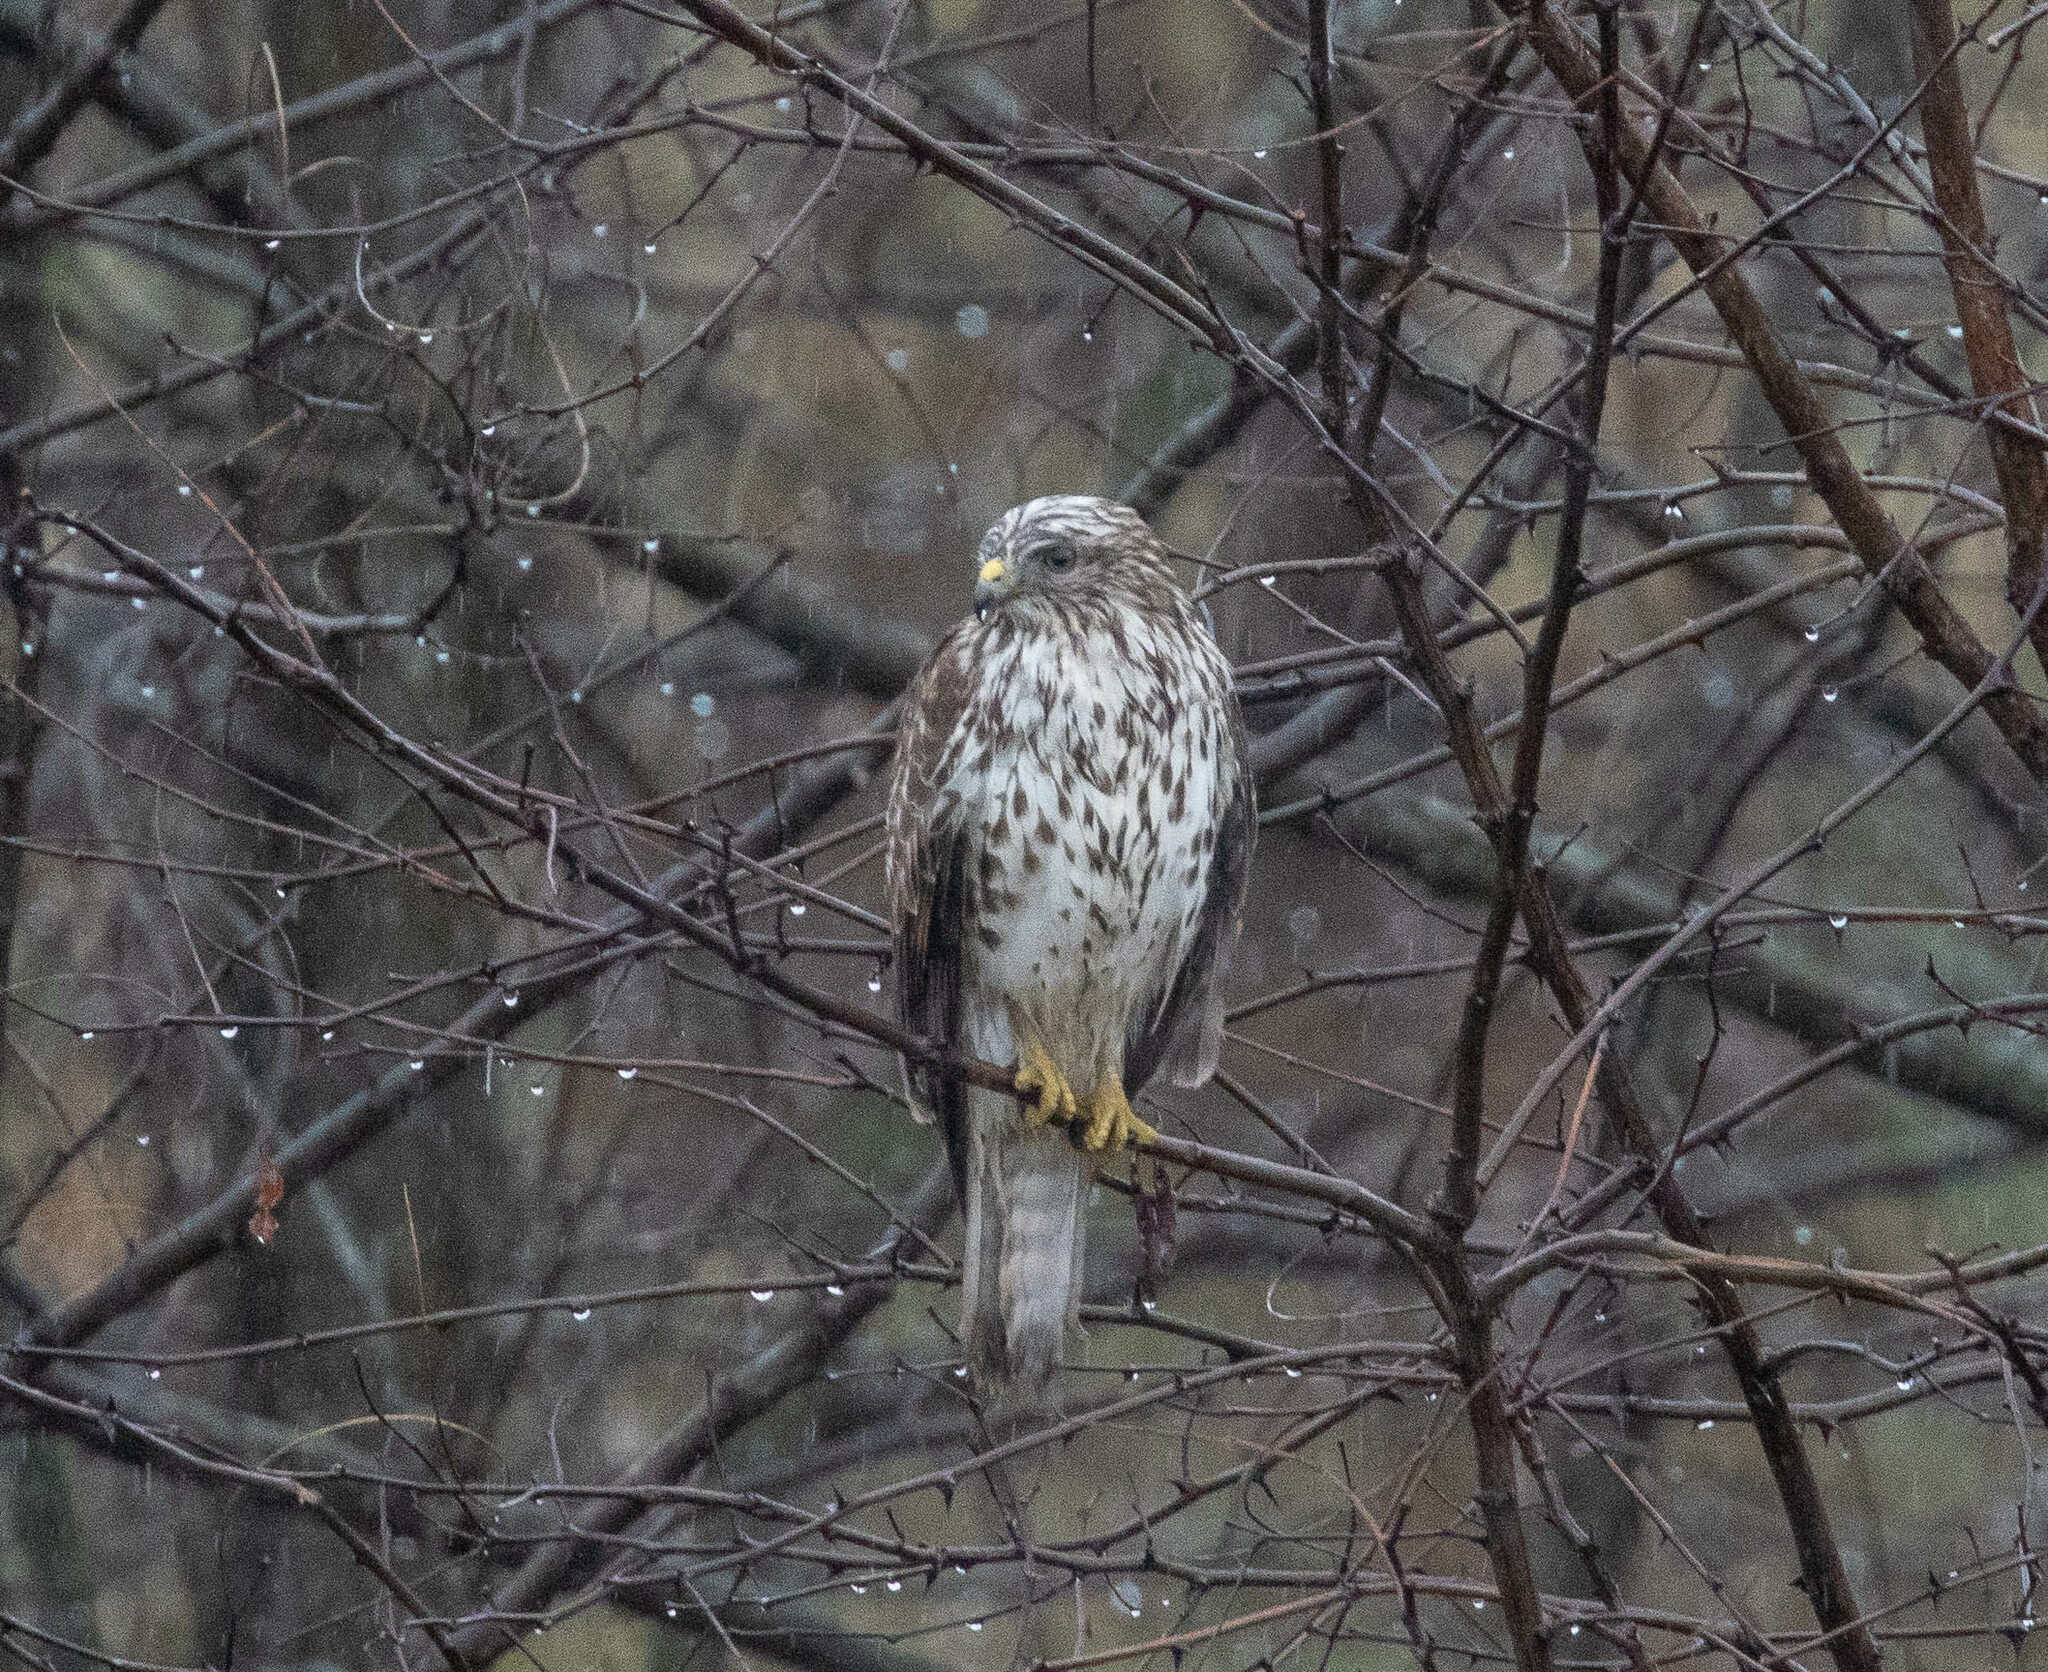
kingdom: Animalia
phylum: Chordata
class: Aves
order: Accipitriformes
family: Accipitridae
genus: Buteo
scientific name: Buteo lineatus
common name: Red-shouldered hawk
